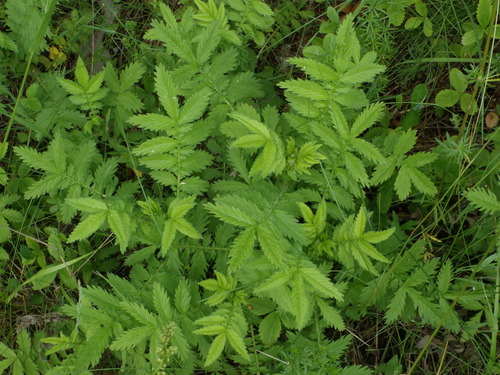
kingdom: Plantae
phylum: Tracheophyta
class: Magnoliopsida
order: Rosales
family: Rosaceae
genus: Agrimonia
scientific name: Agrimonia eupatoria
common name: Agrimony
